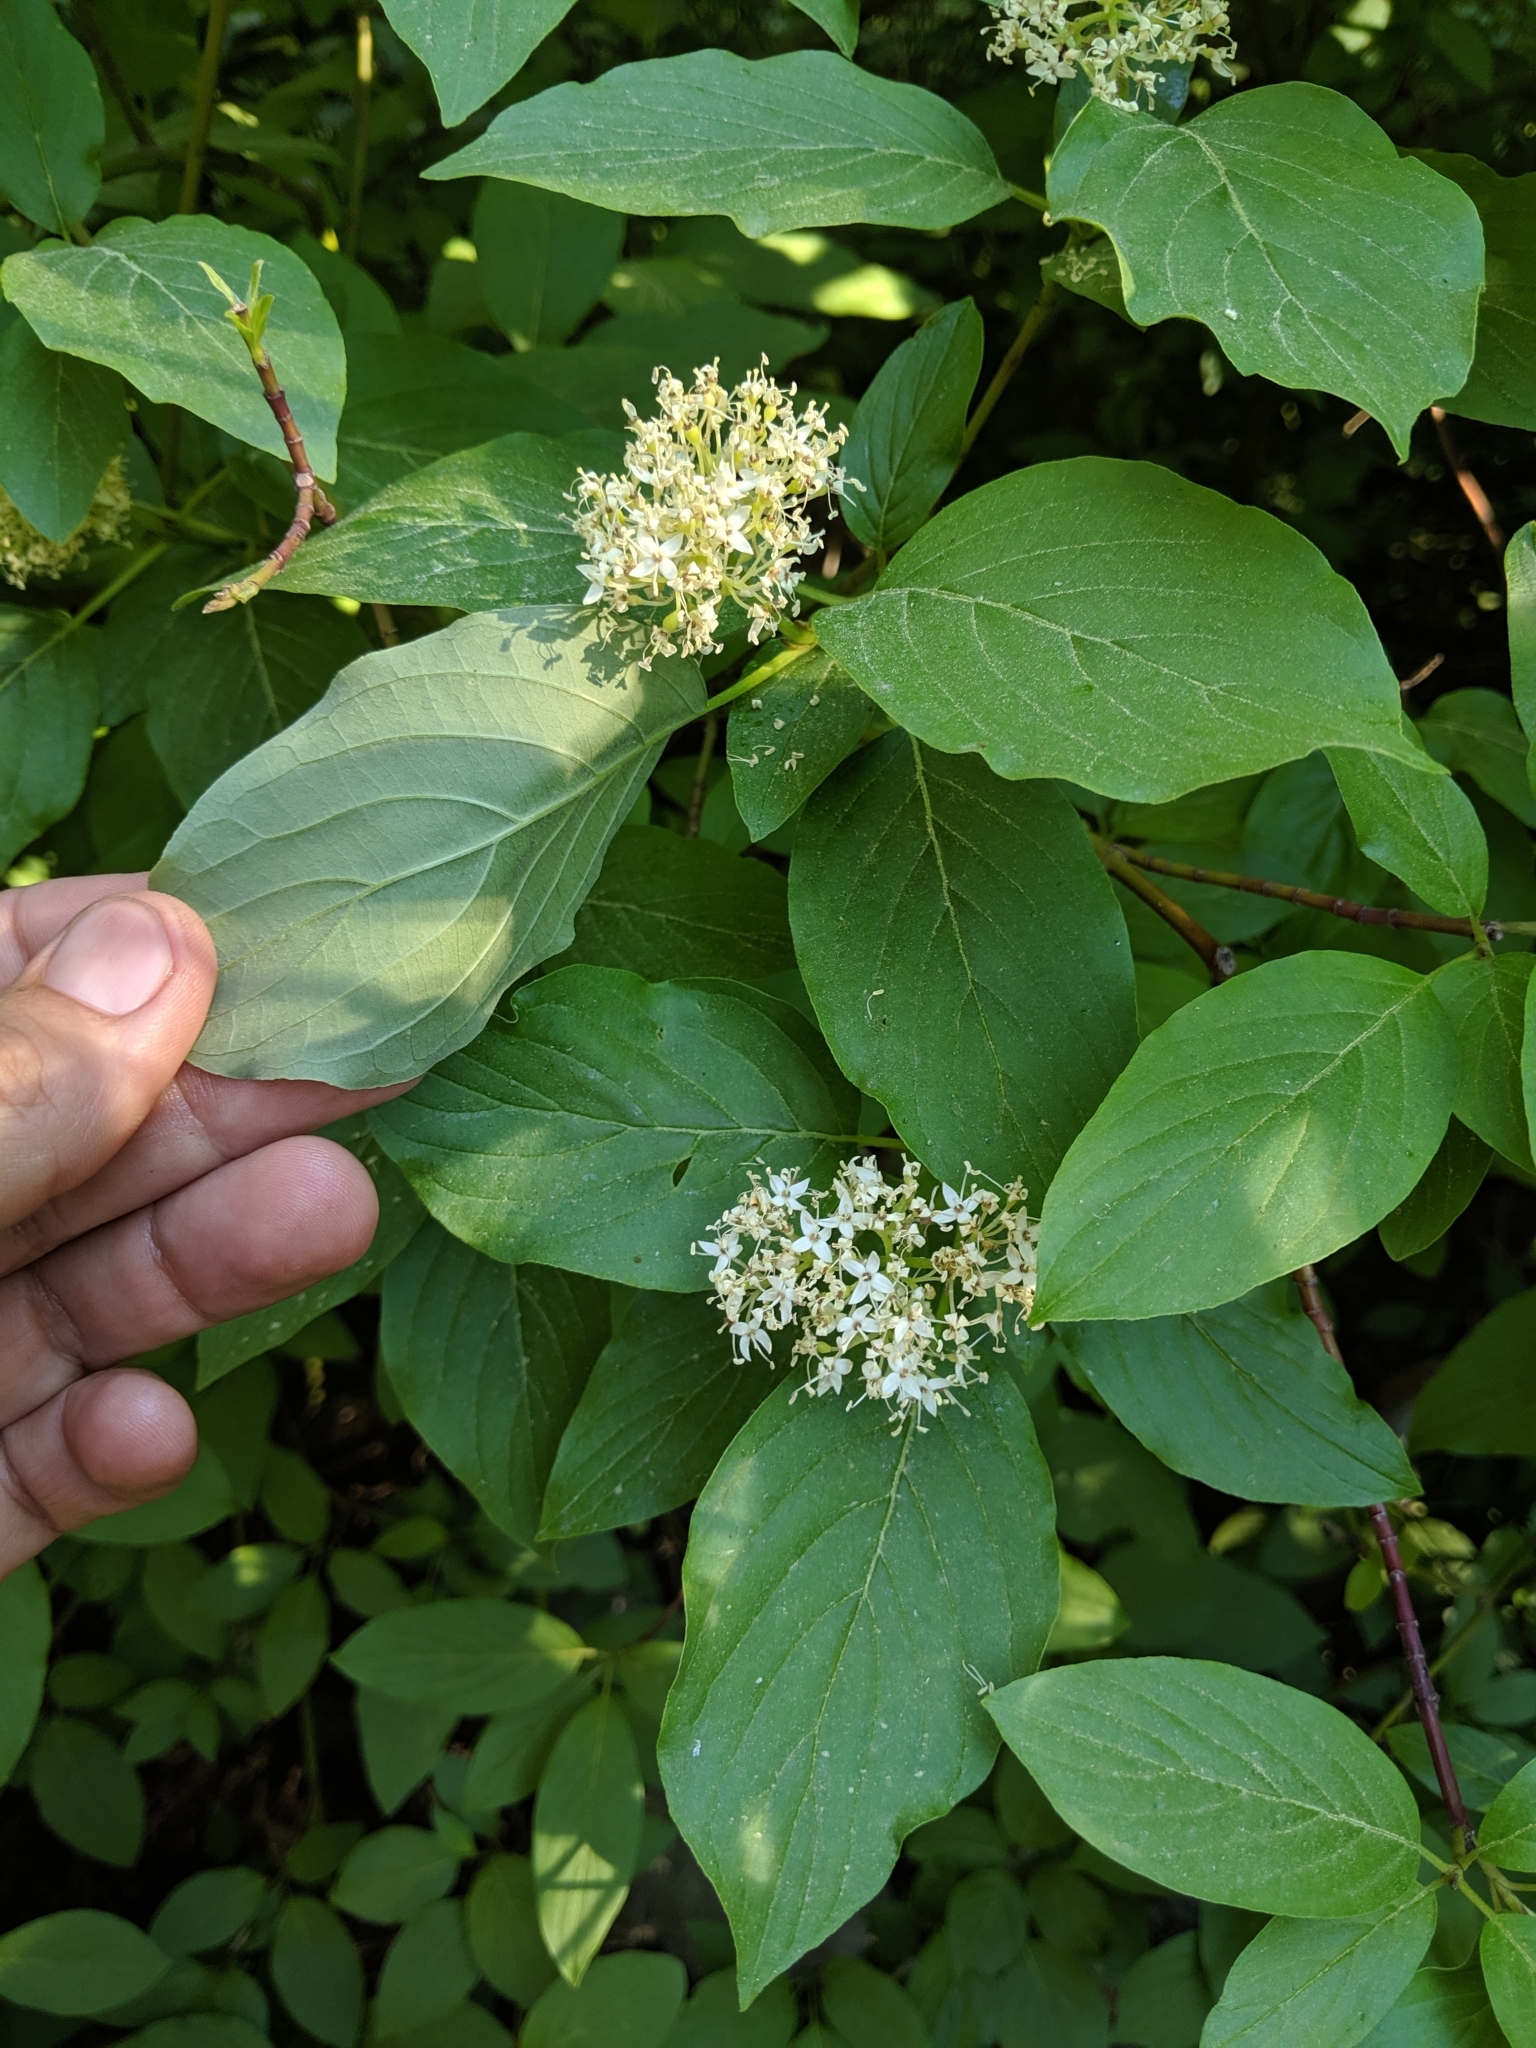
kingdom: Plantae
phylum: Tracheophyta
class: Magnoliopsida
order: Cornales
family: Cornaceae
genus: Cornus
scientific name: Cornus sericea
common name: Red-osier dogwood
